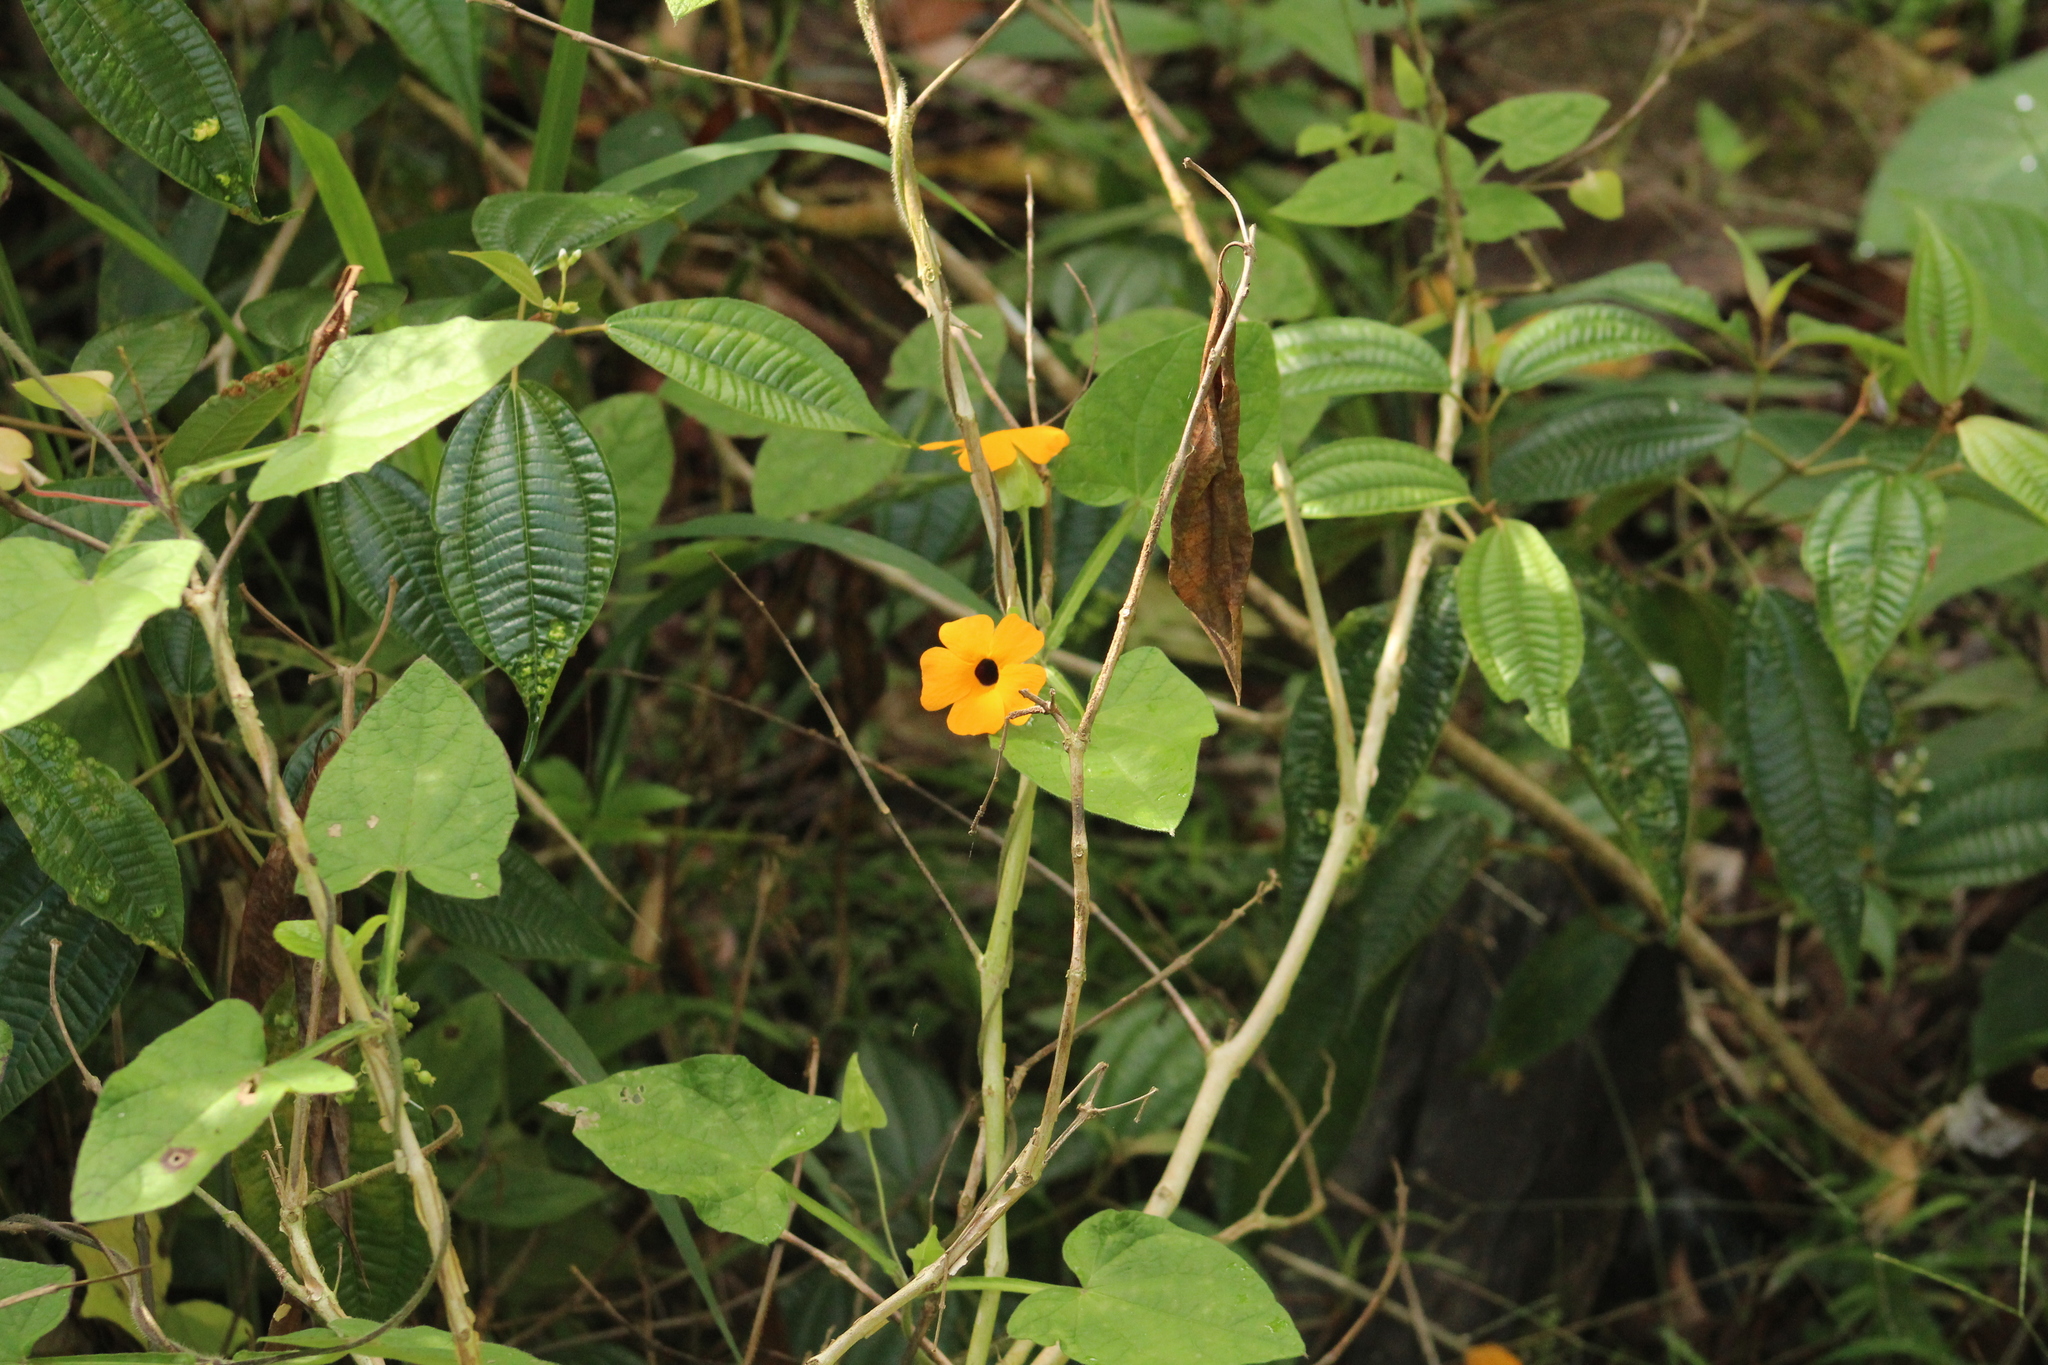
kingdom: Plantae
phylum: Tracheophyta
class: Magnoliopsida
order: Lamiales
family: Acanthaceae
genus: Thunbergia
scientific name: Thunbergia alata
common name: Blackeyed susan vine
